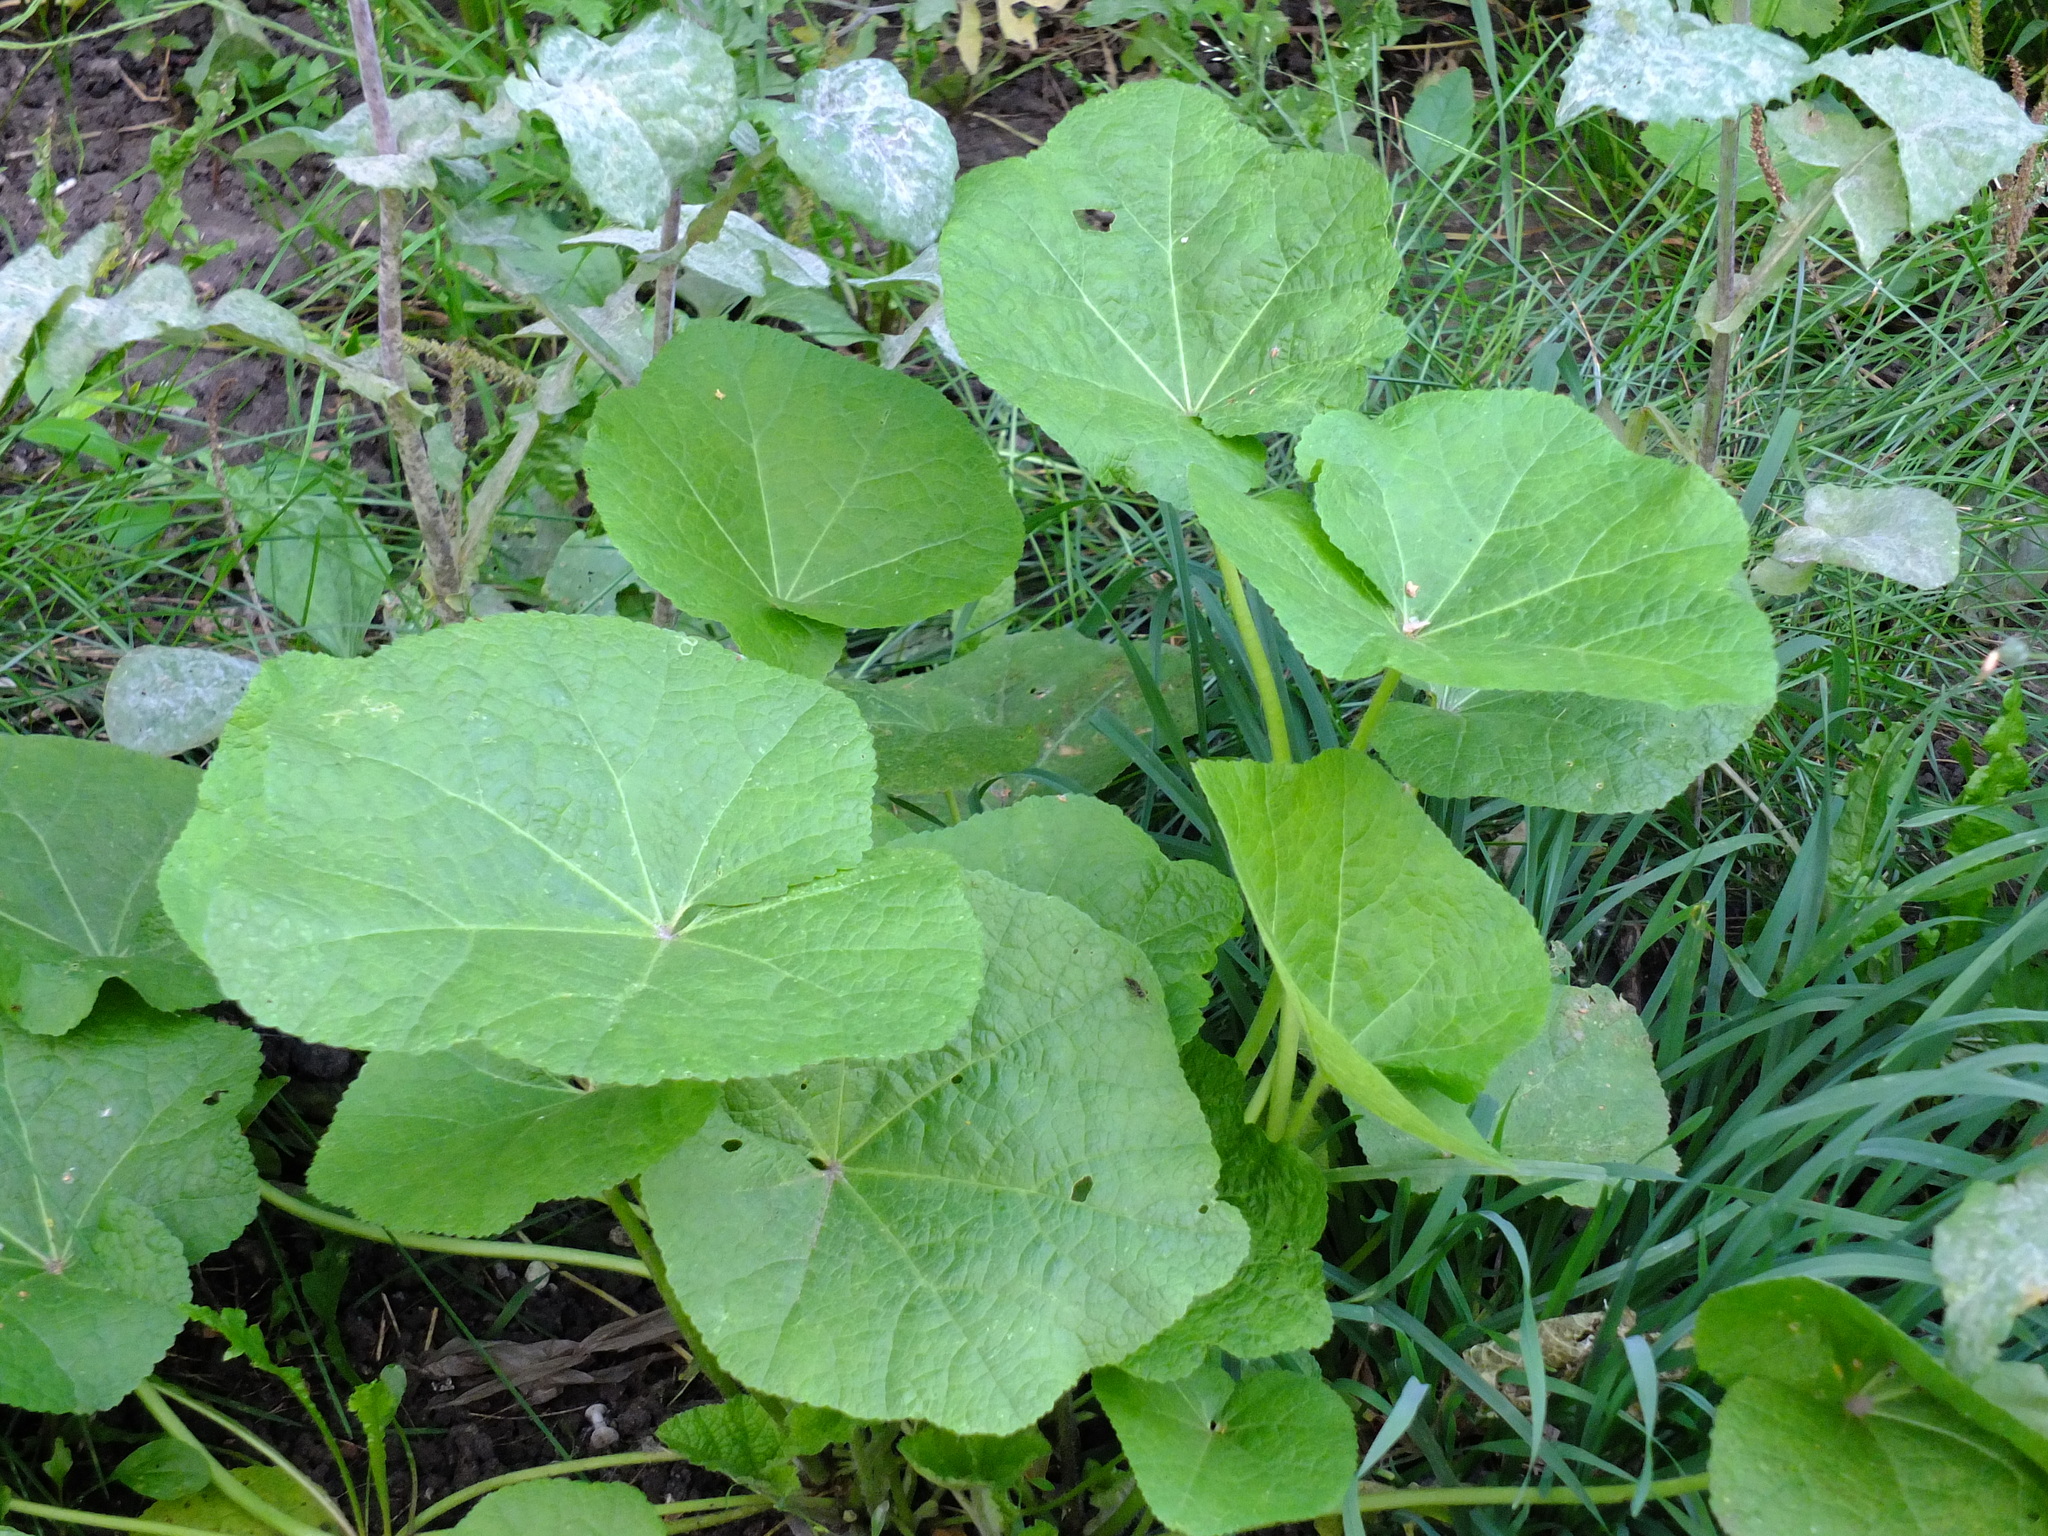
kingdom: Plantae
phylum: Tracheophyta
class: Magnoliopsida
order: Malvales
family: Malvaceae
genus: Alcea
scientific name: Alcea rosea
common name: Hollyhock
